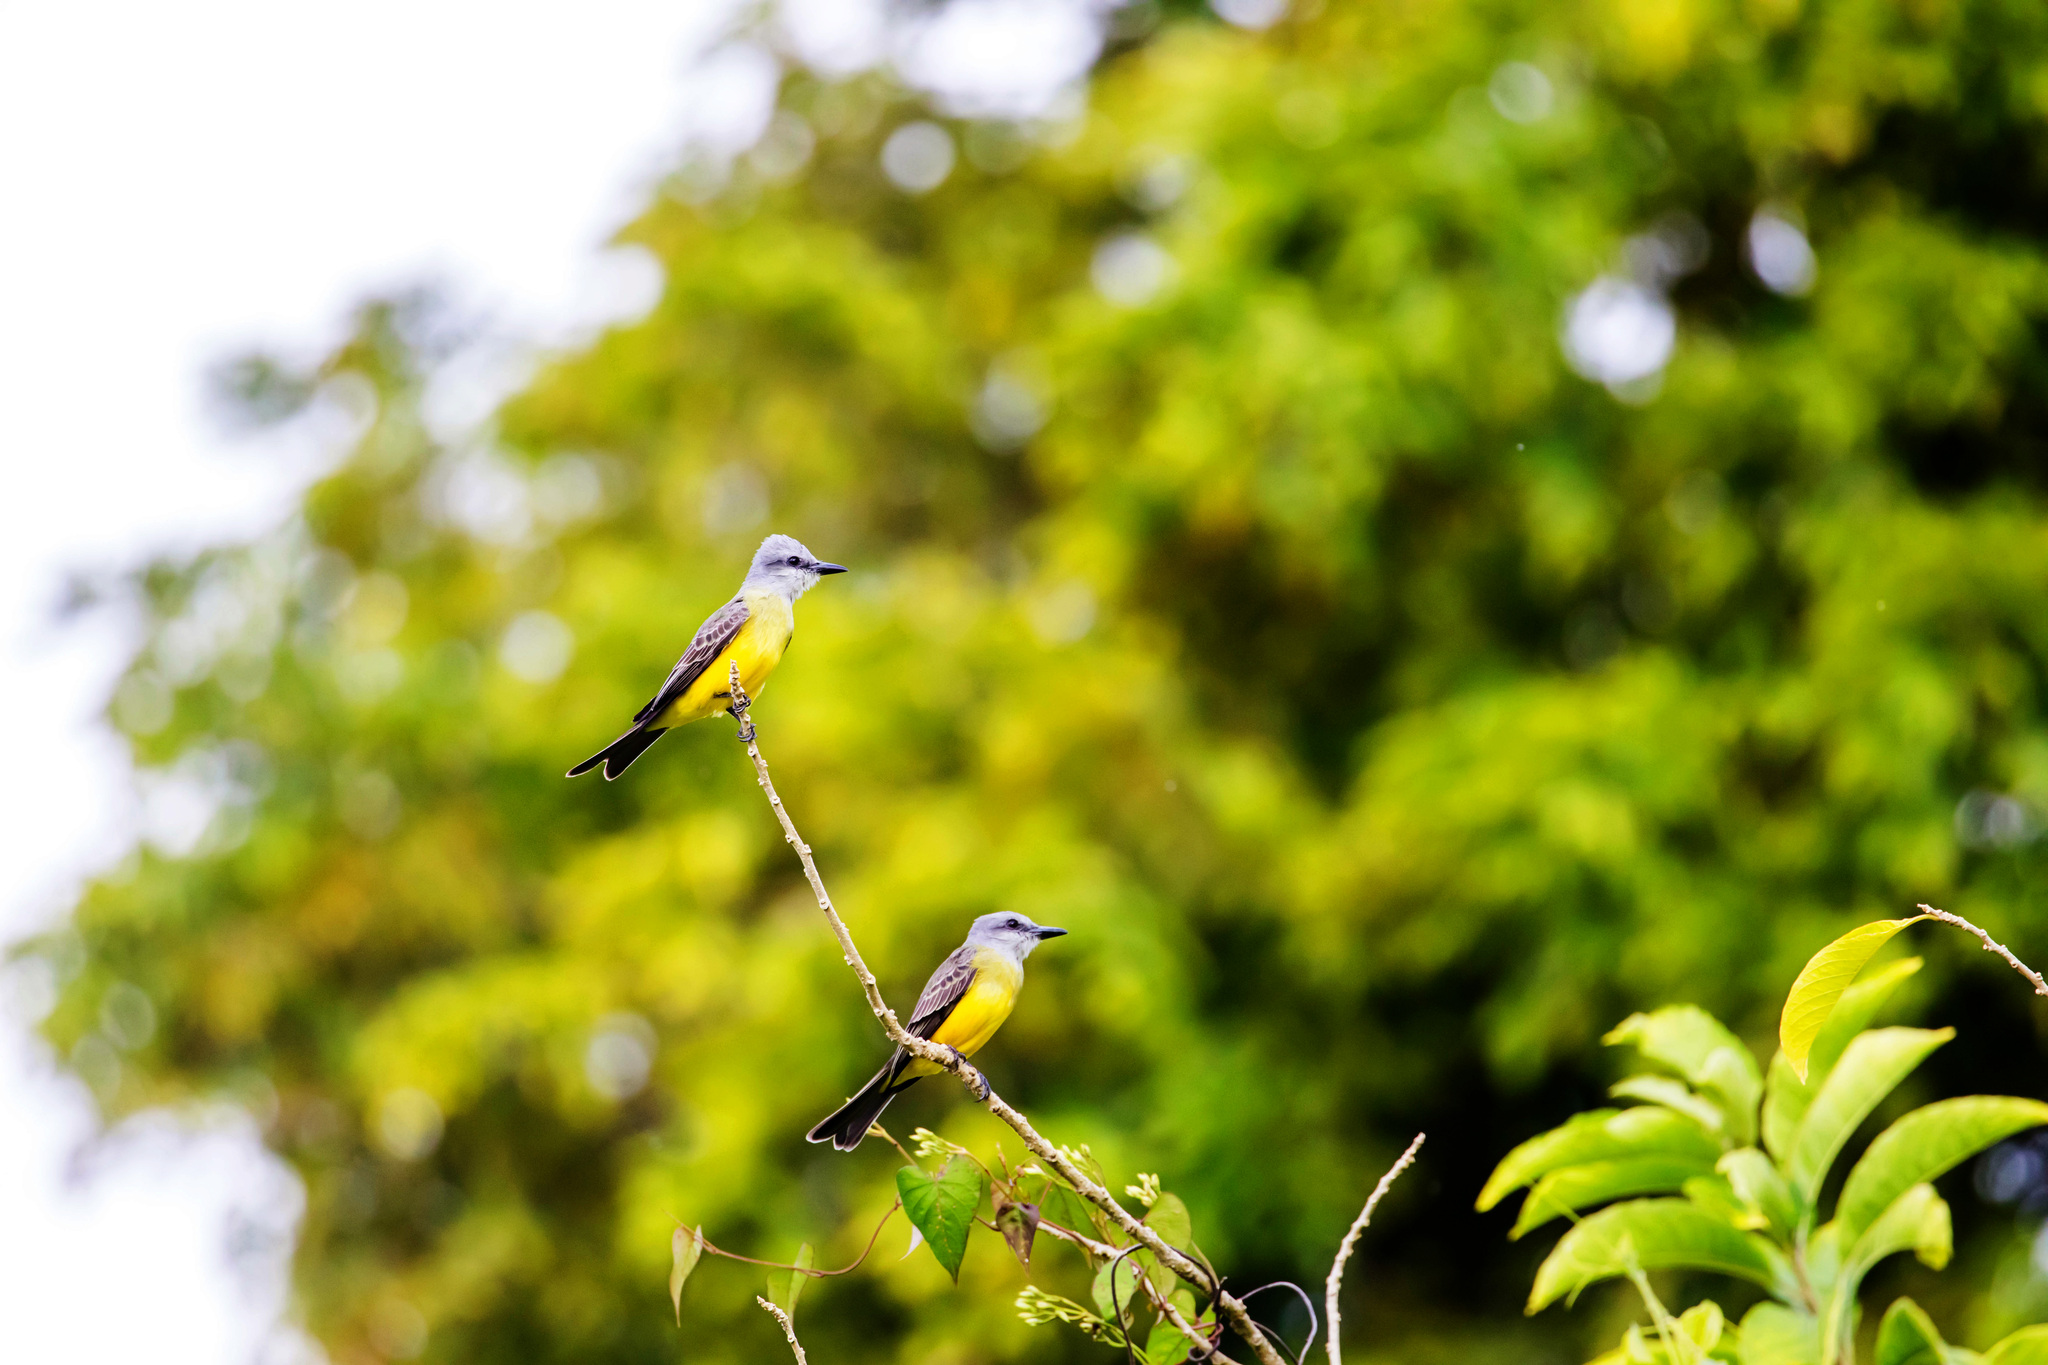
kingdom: Animalia
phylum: Chordata
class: Aves
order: Passeriformes
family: Tyrannidae
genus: Tyrannus
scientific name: Tyrannus melancholicus
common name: Tropical kingbird
